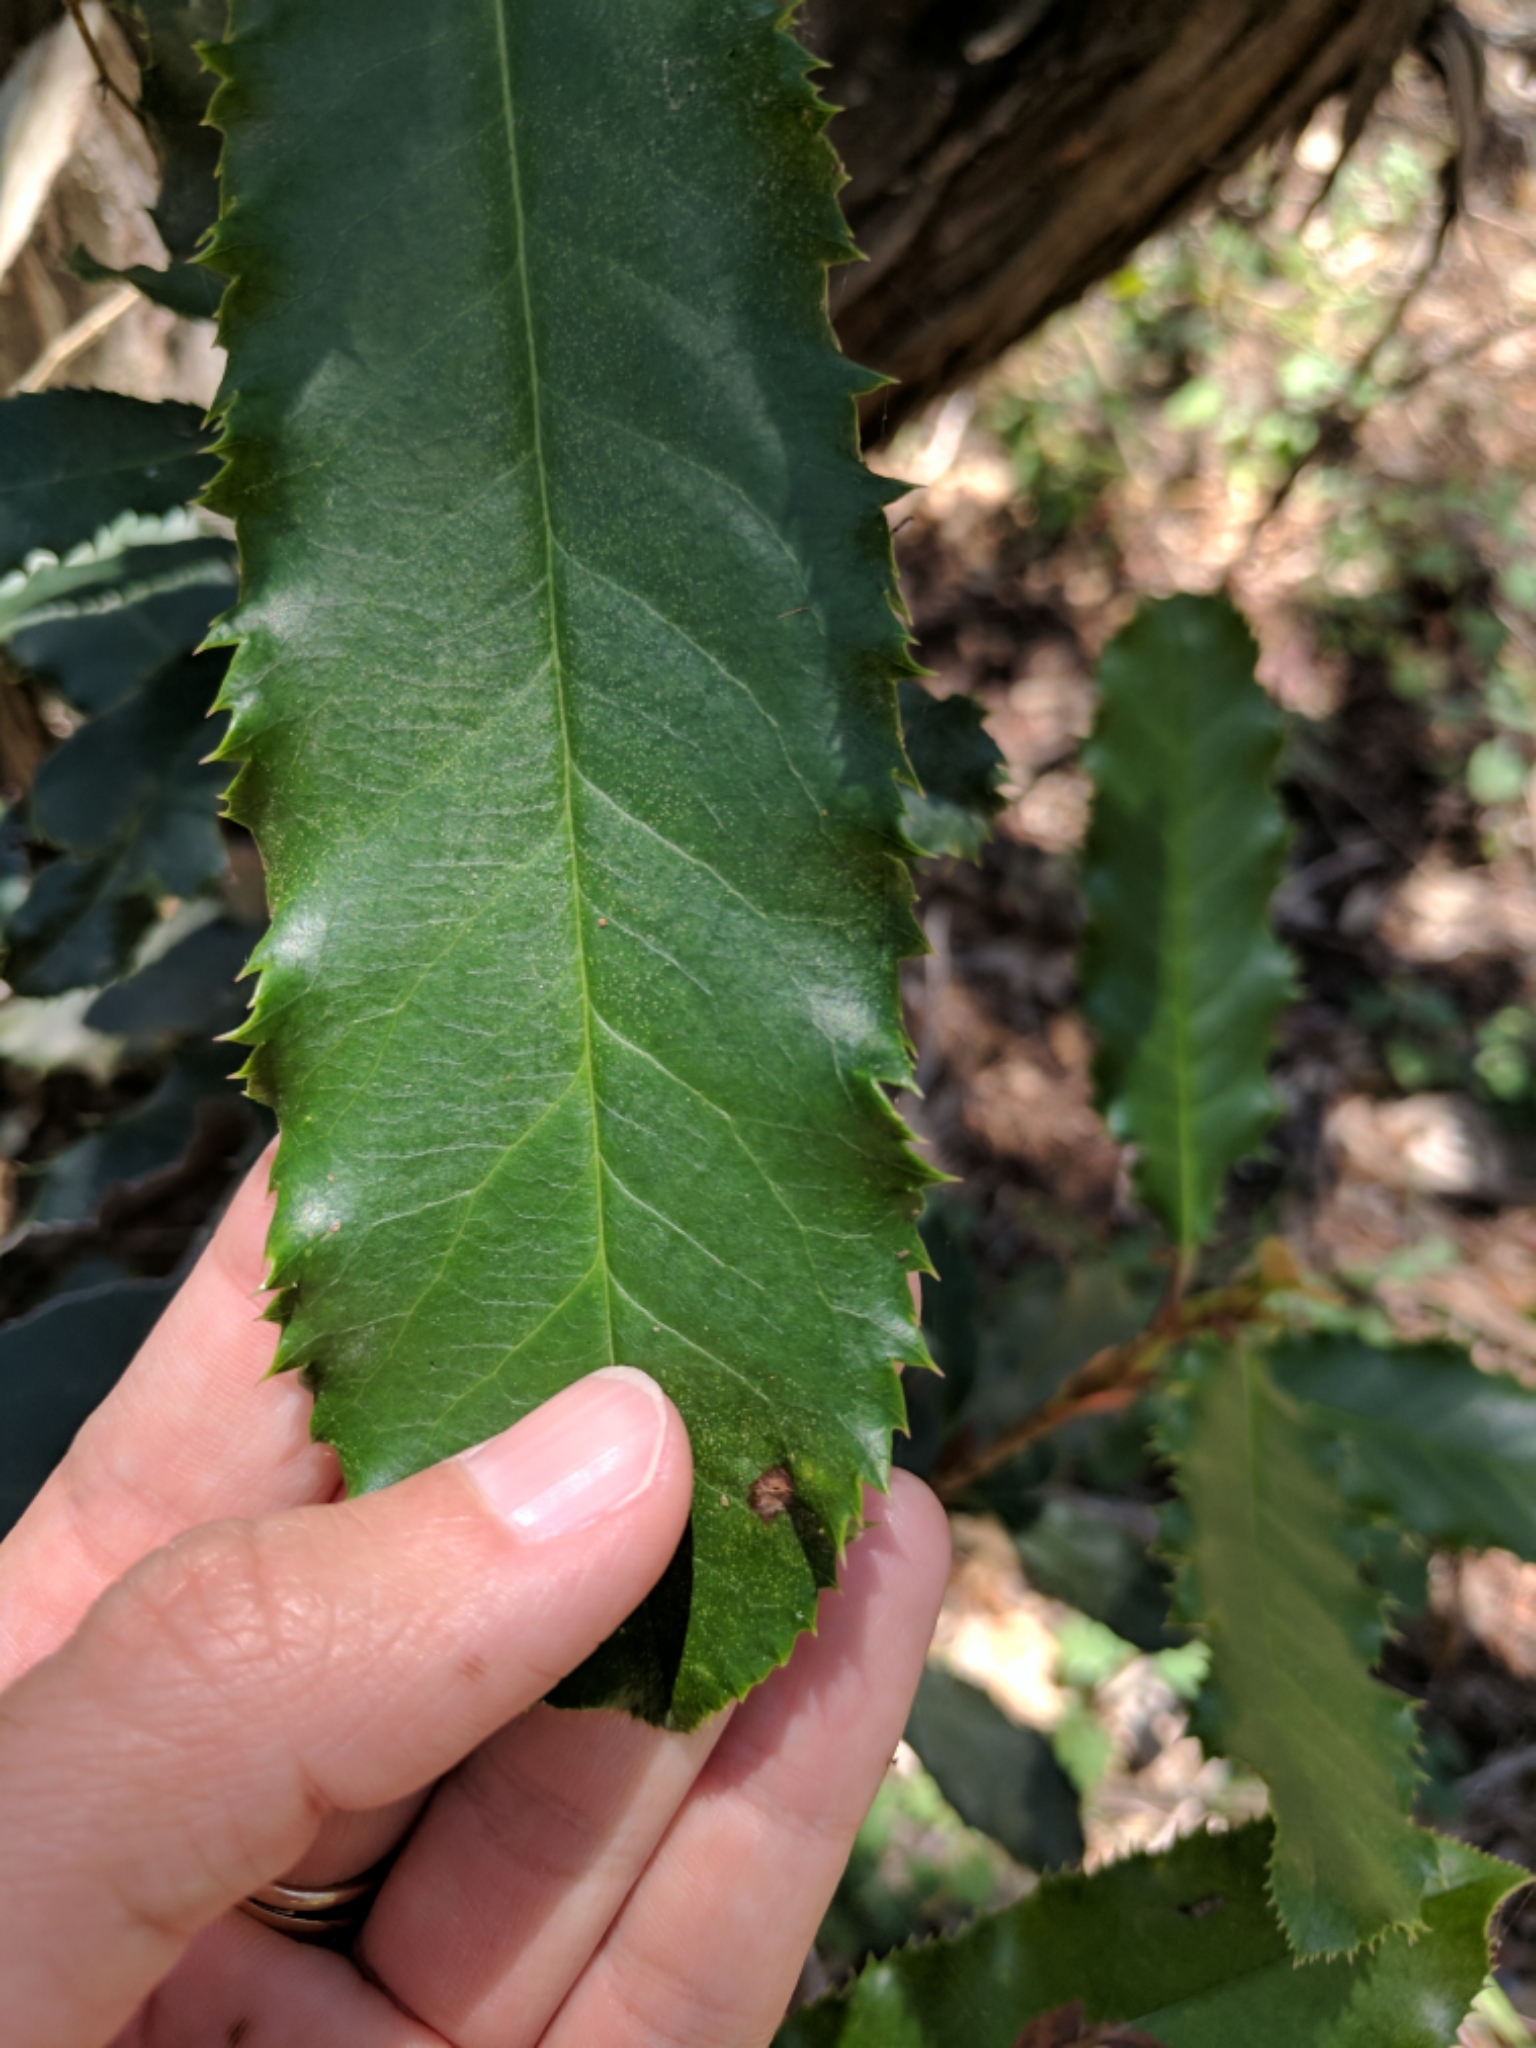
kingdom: Plantae
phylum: Tracheophyta
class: Magnoliopsida
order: Rosales
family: Rosaceae
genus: Photinia
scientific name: Photinia serratifolia
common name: Taiwanese photinia
